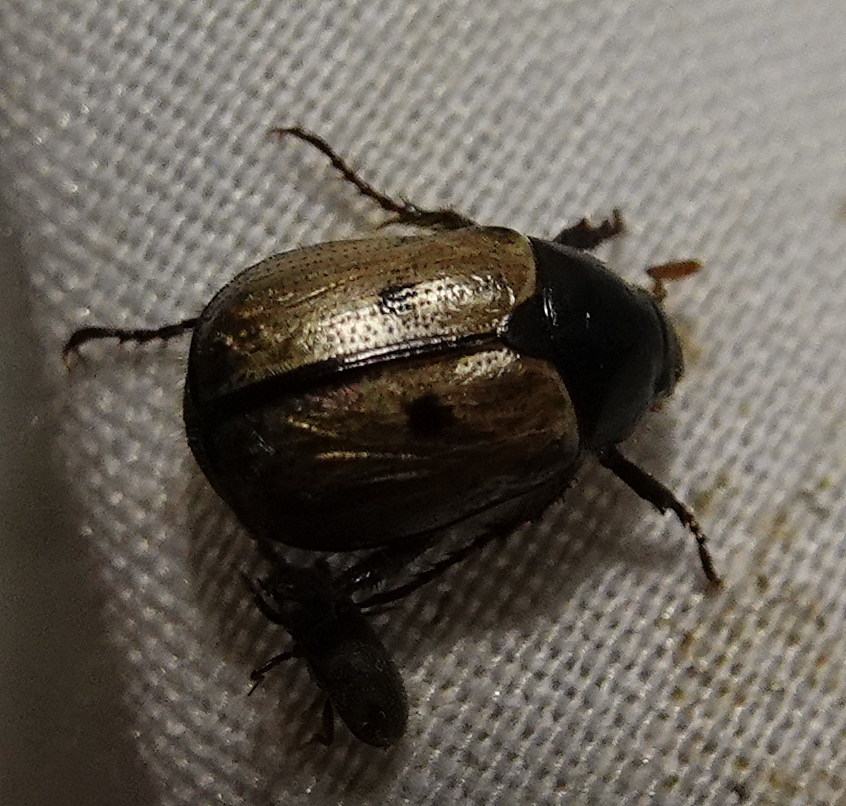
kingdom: Animalia
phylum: Arthropoda
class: Insecta
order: Coleoptera
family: Scarabaeidae
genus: Paranomala
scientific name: Paranomala binotata
